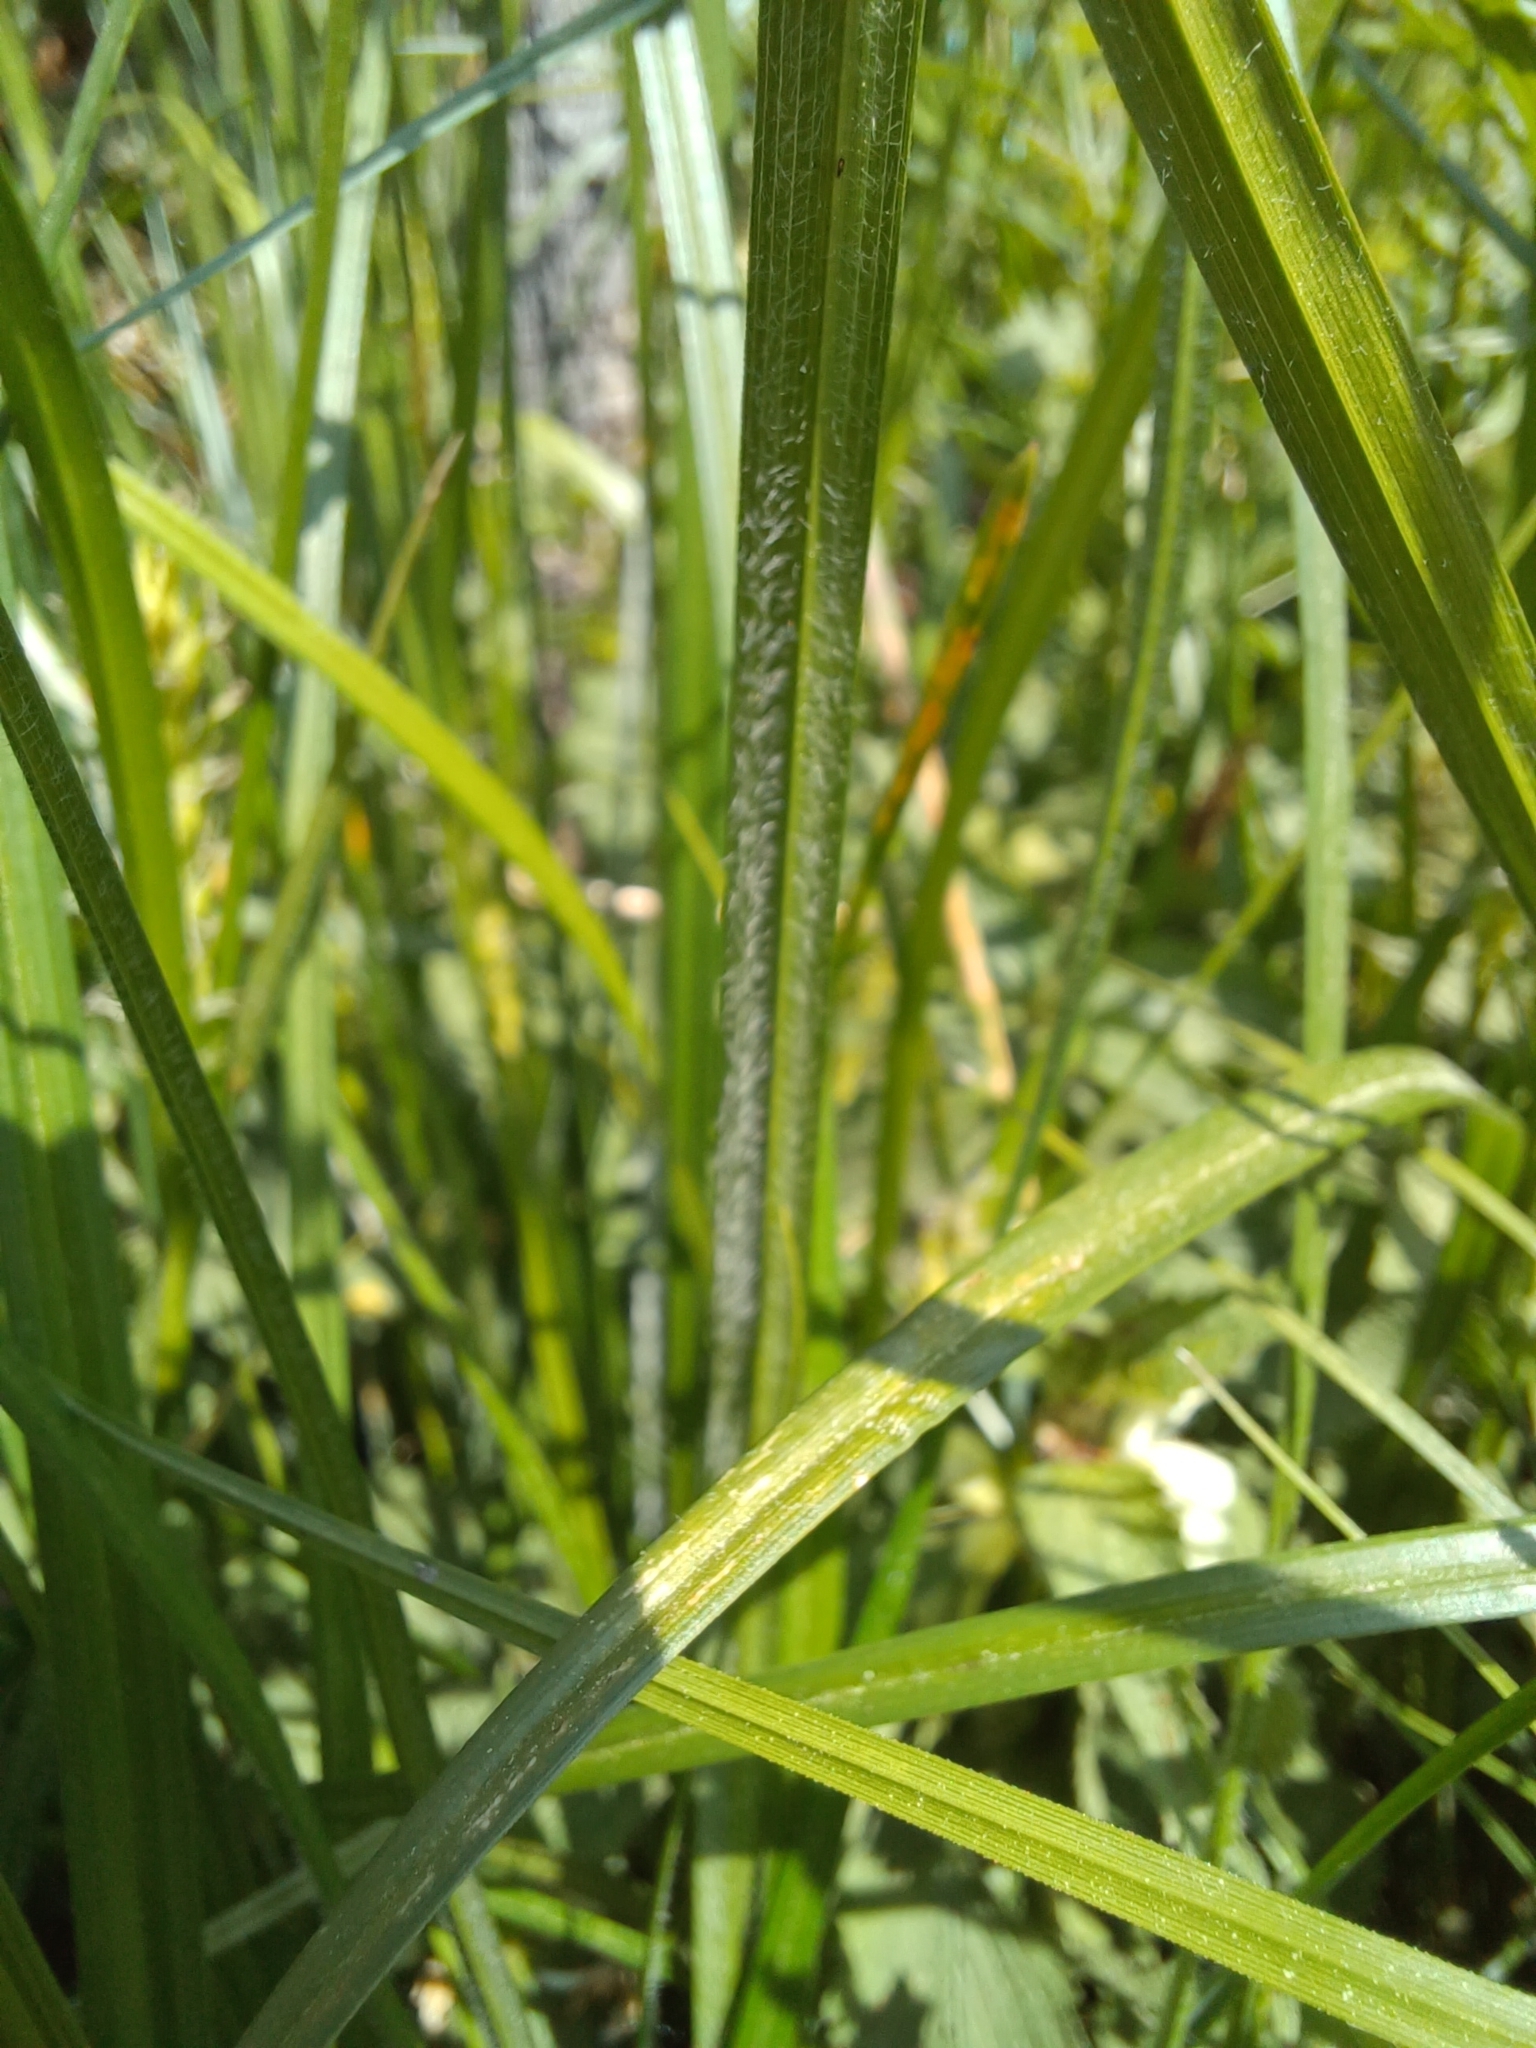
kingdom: Plantae
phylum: Tracheophyta
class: Liliopsida
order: Poales
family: Cyperaceae
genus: Carex
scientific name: Carex hirta
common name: Hairy sedge
